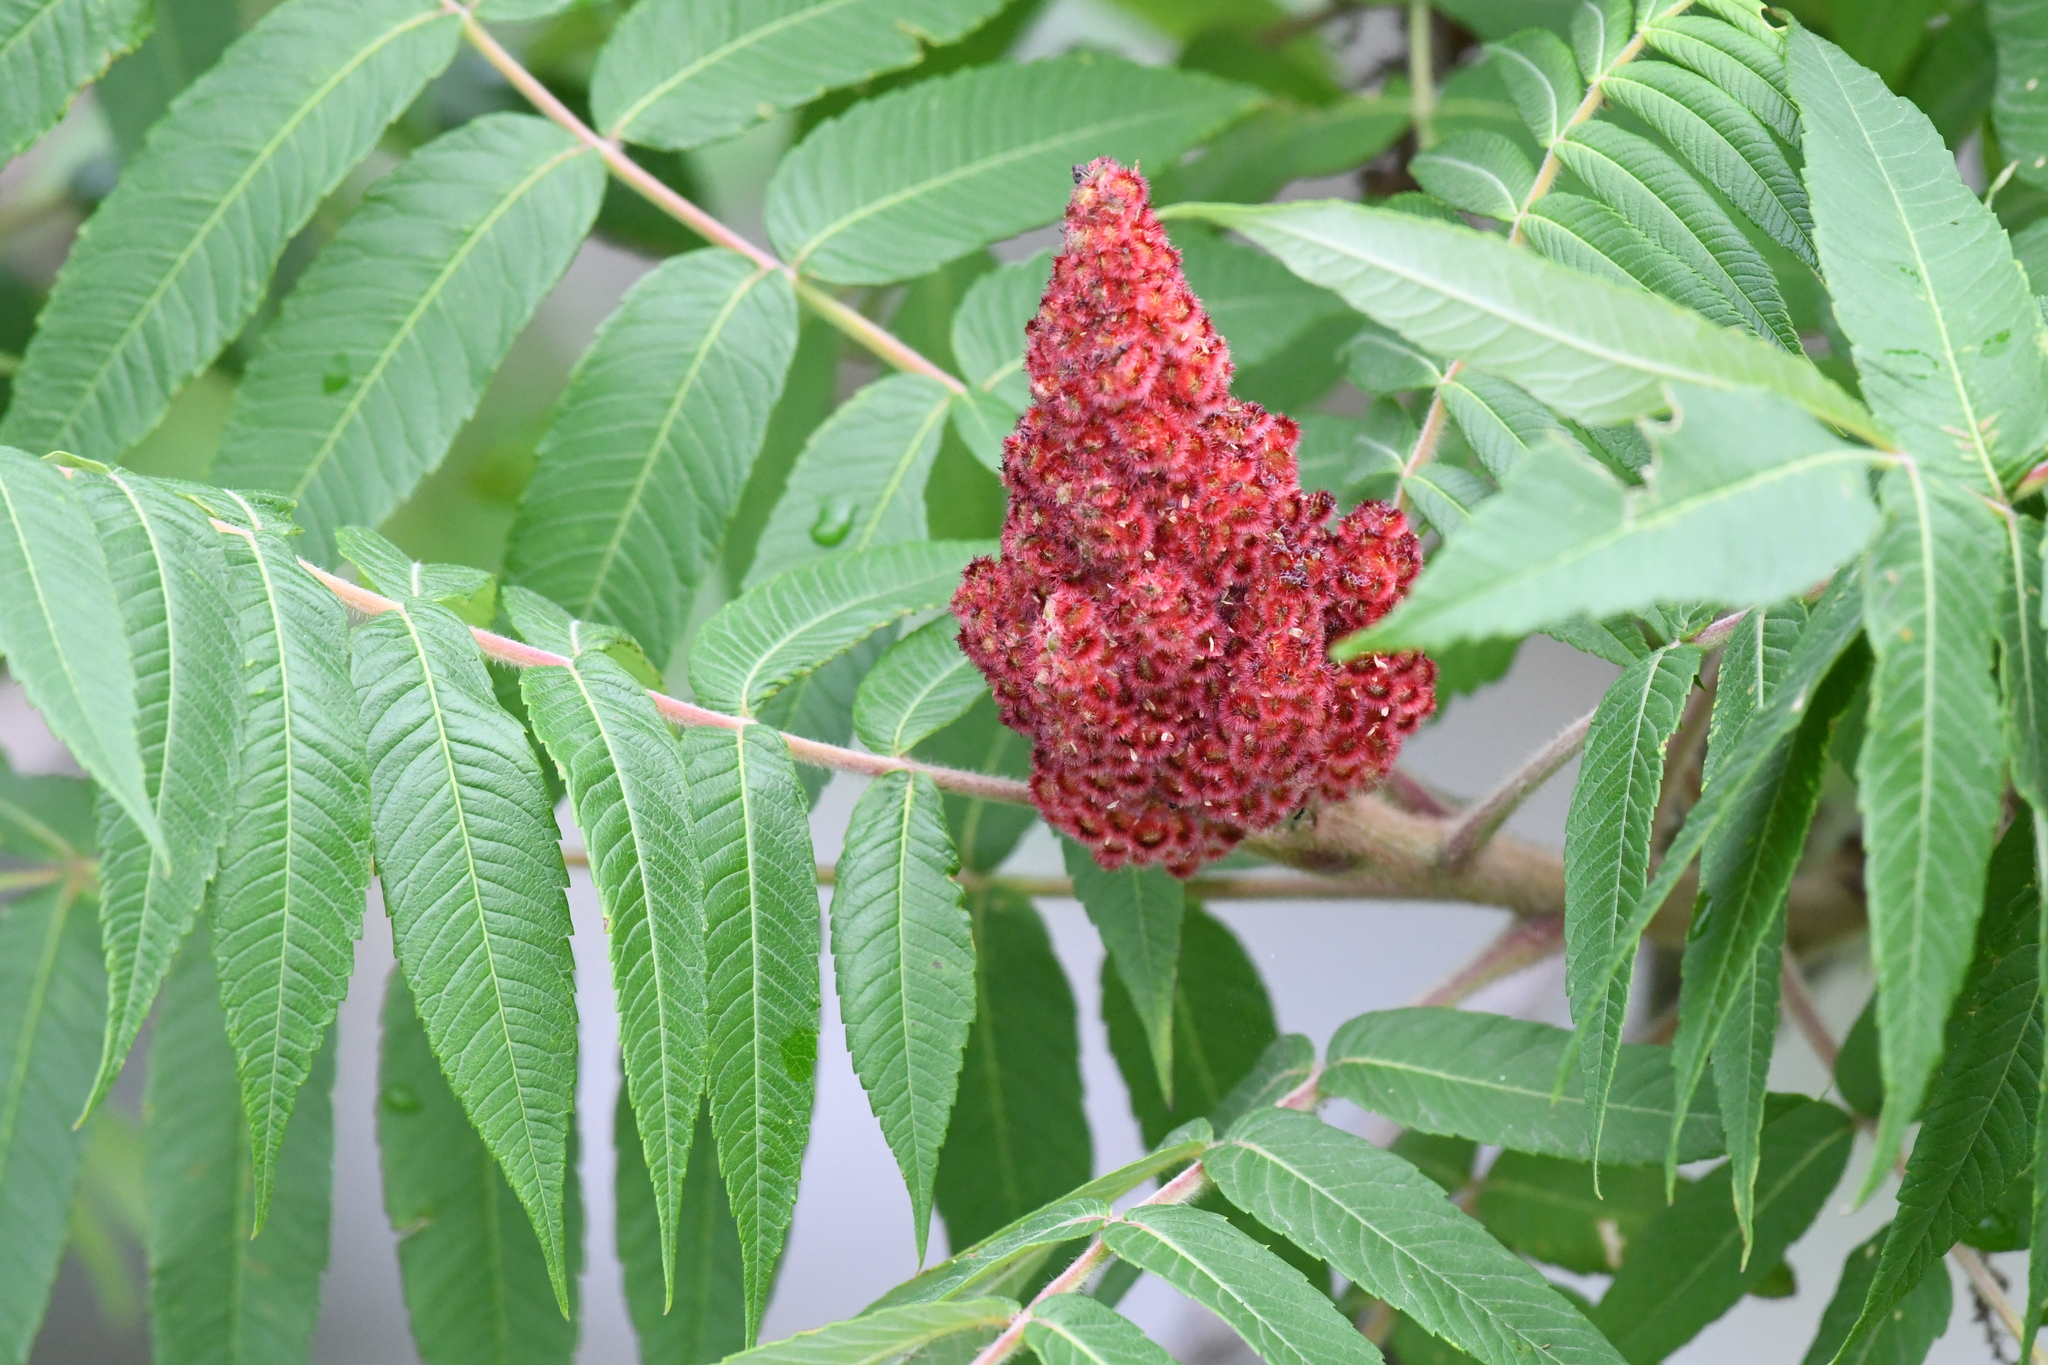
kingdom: Plantae
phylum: Tracheophyta
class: Magnoliopsida
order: Sapindales
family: Anacardiaceae
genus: Rhus
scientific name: Rhus typhina
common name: Staghorn sumac
